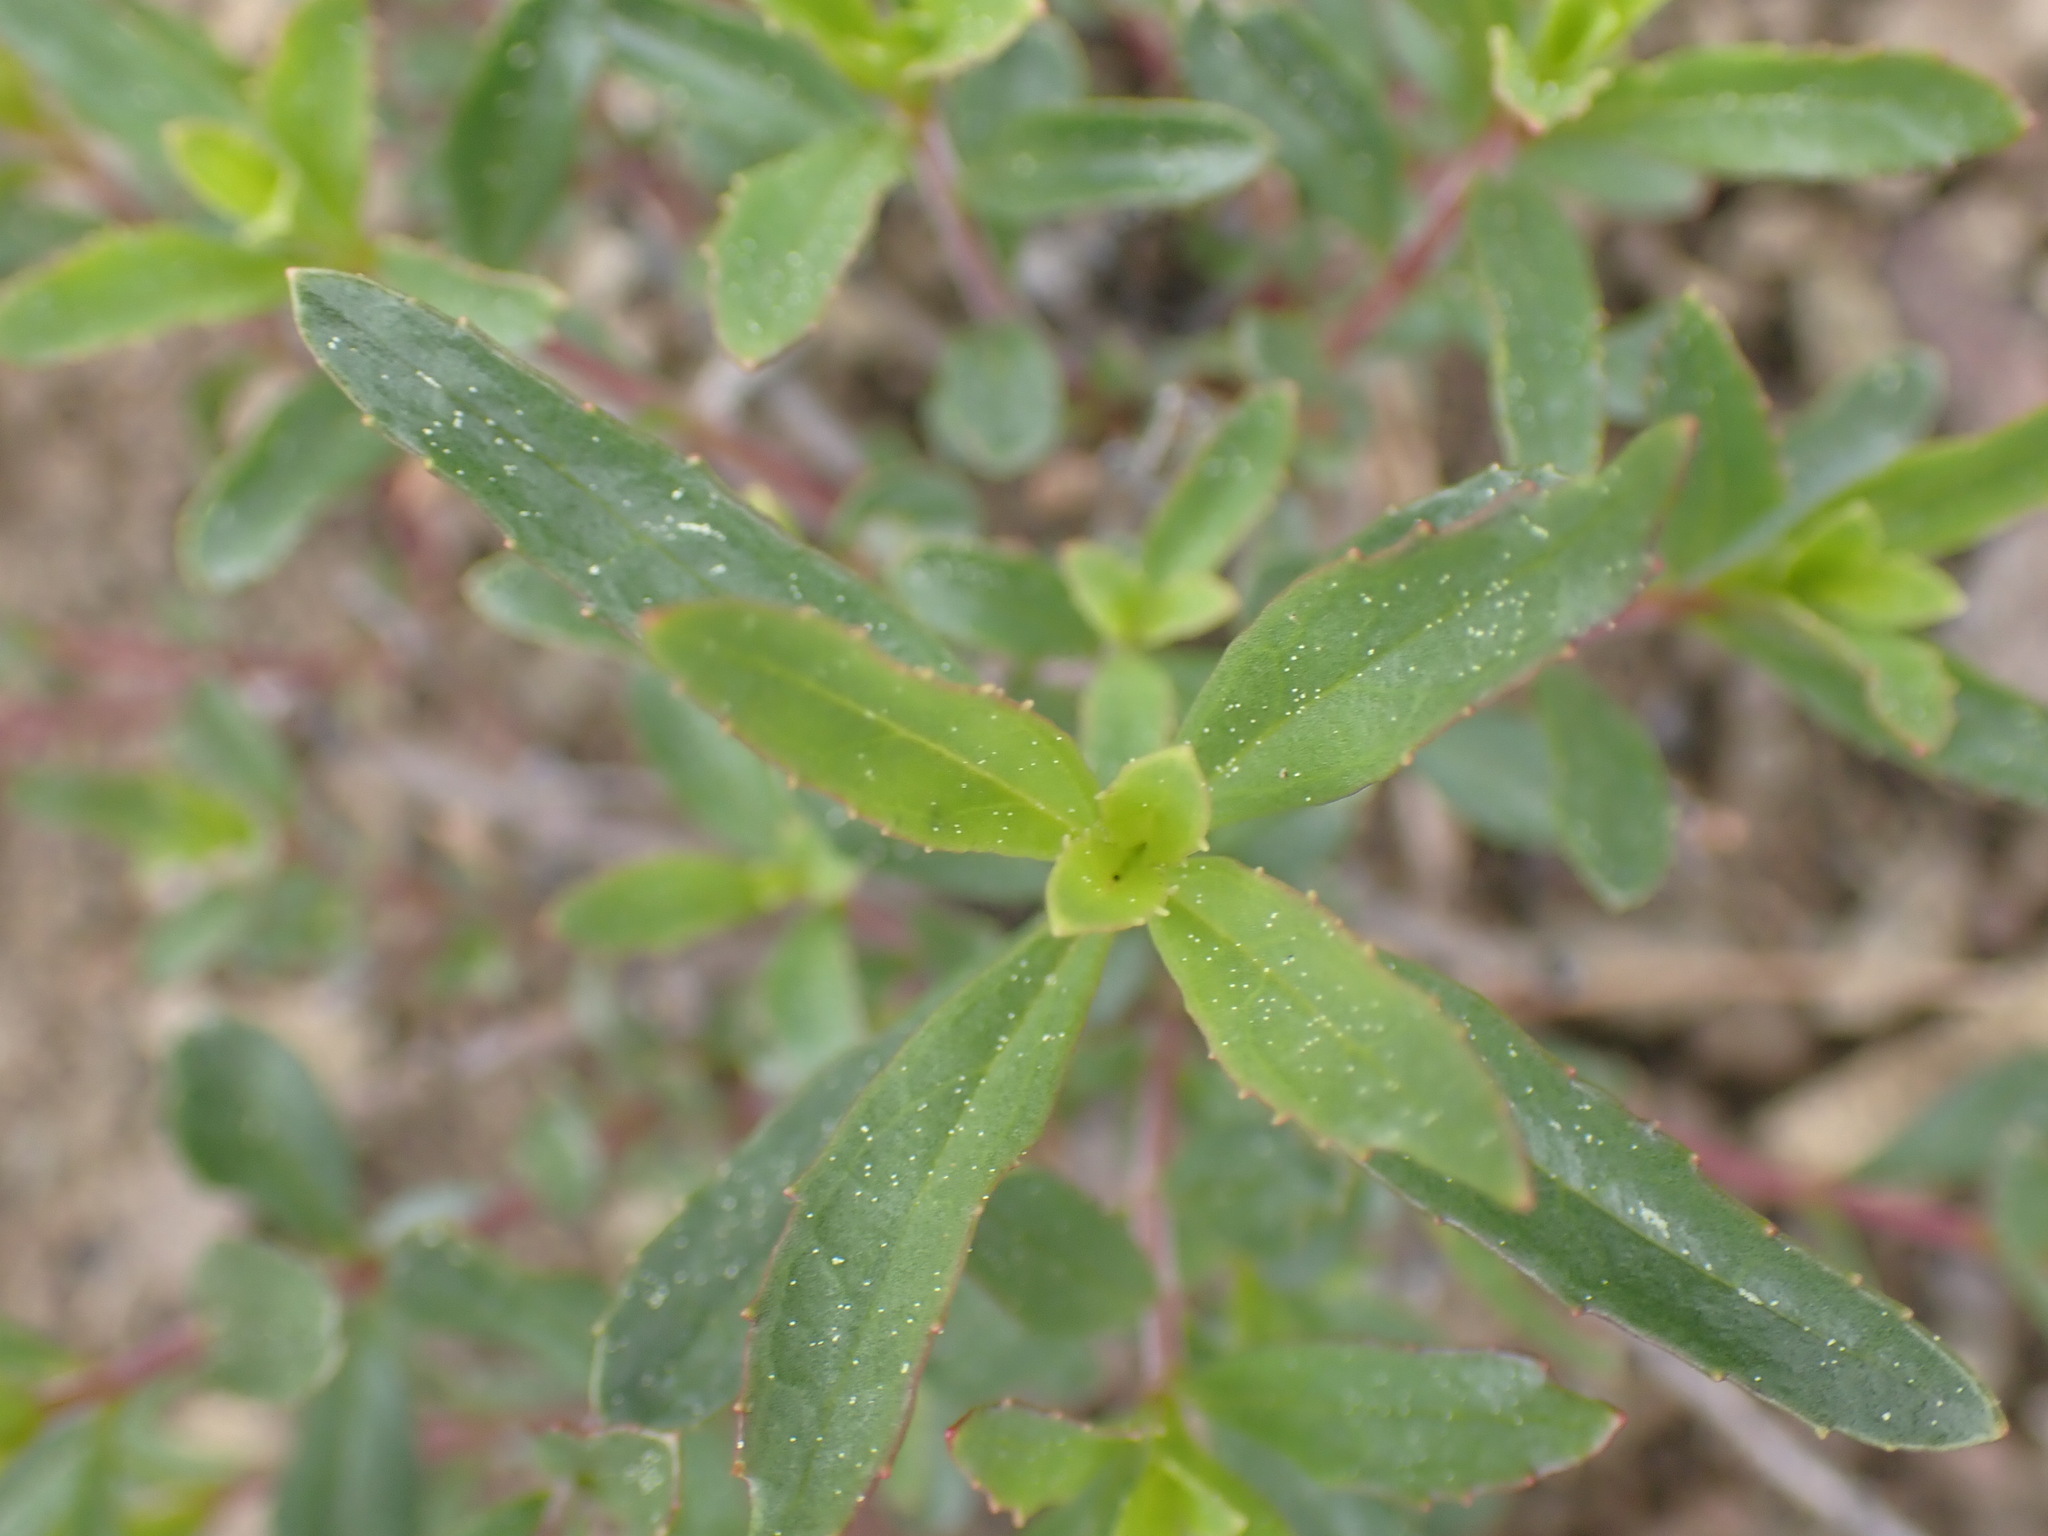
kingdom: Plantae
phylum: Tracheophyta
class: Magnoliopsida
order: Lamiales
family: Plantaginaceae
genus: Penstemon
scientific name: Penstemon fruticosus
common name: Bush penstemon
